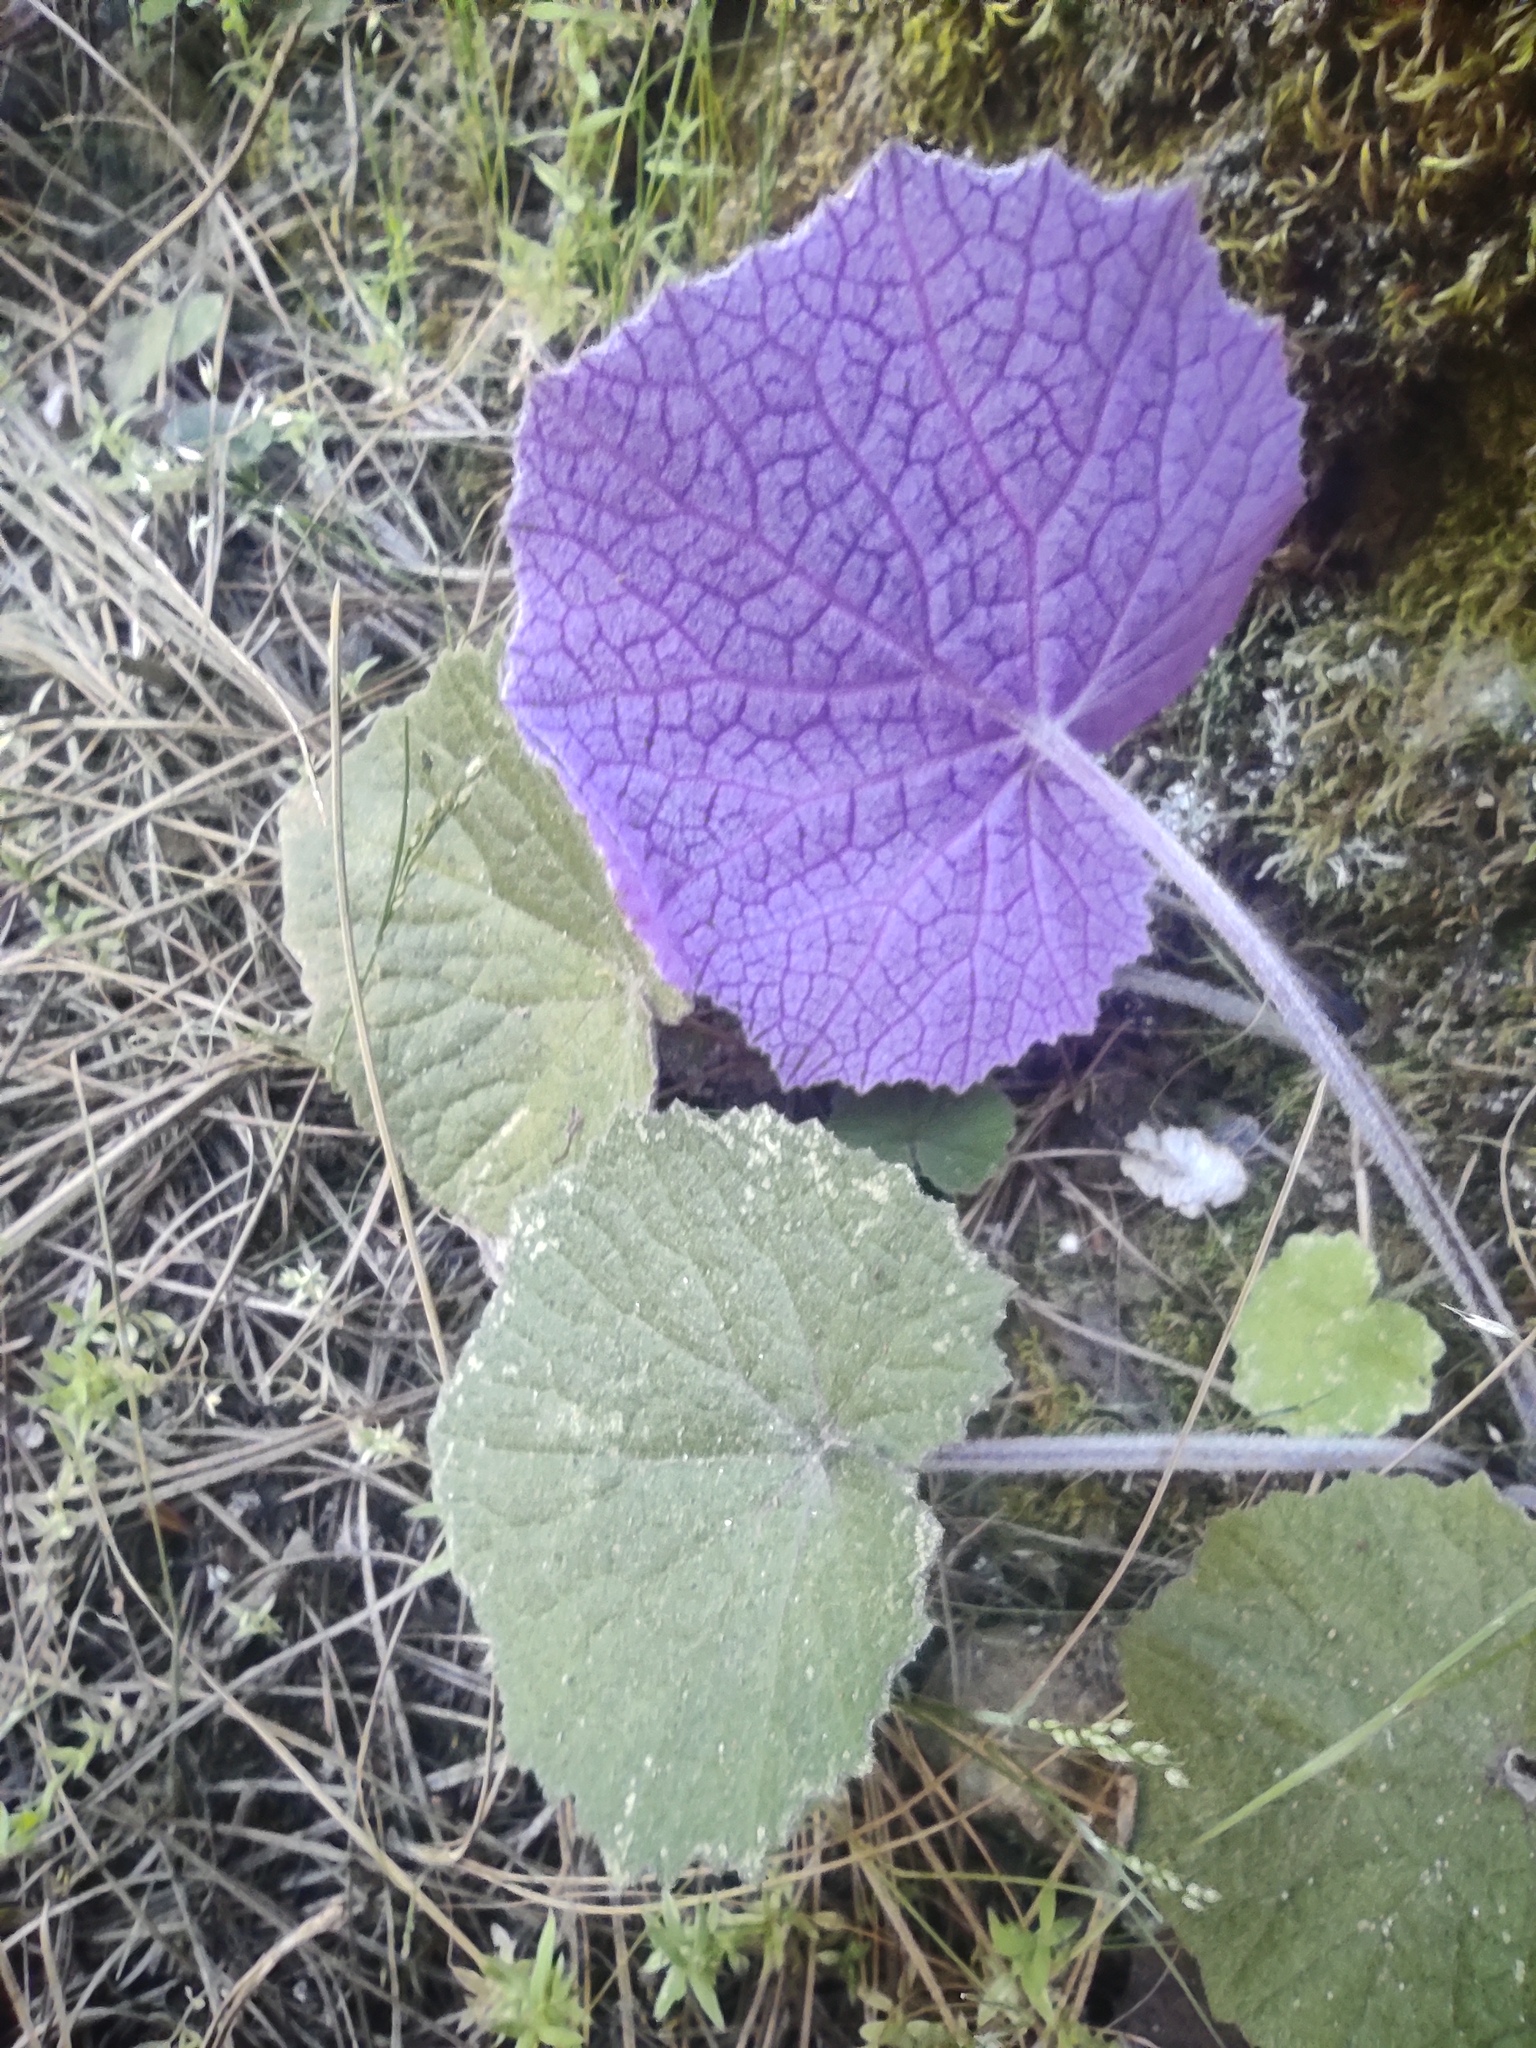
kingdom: Plantae
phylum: Tracheophyta
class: Magnoliopsida
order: Asterales
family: Asteraceae
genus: Pericallis
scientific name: Pericallis cruenta
